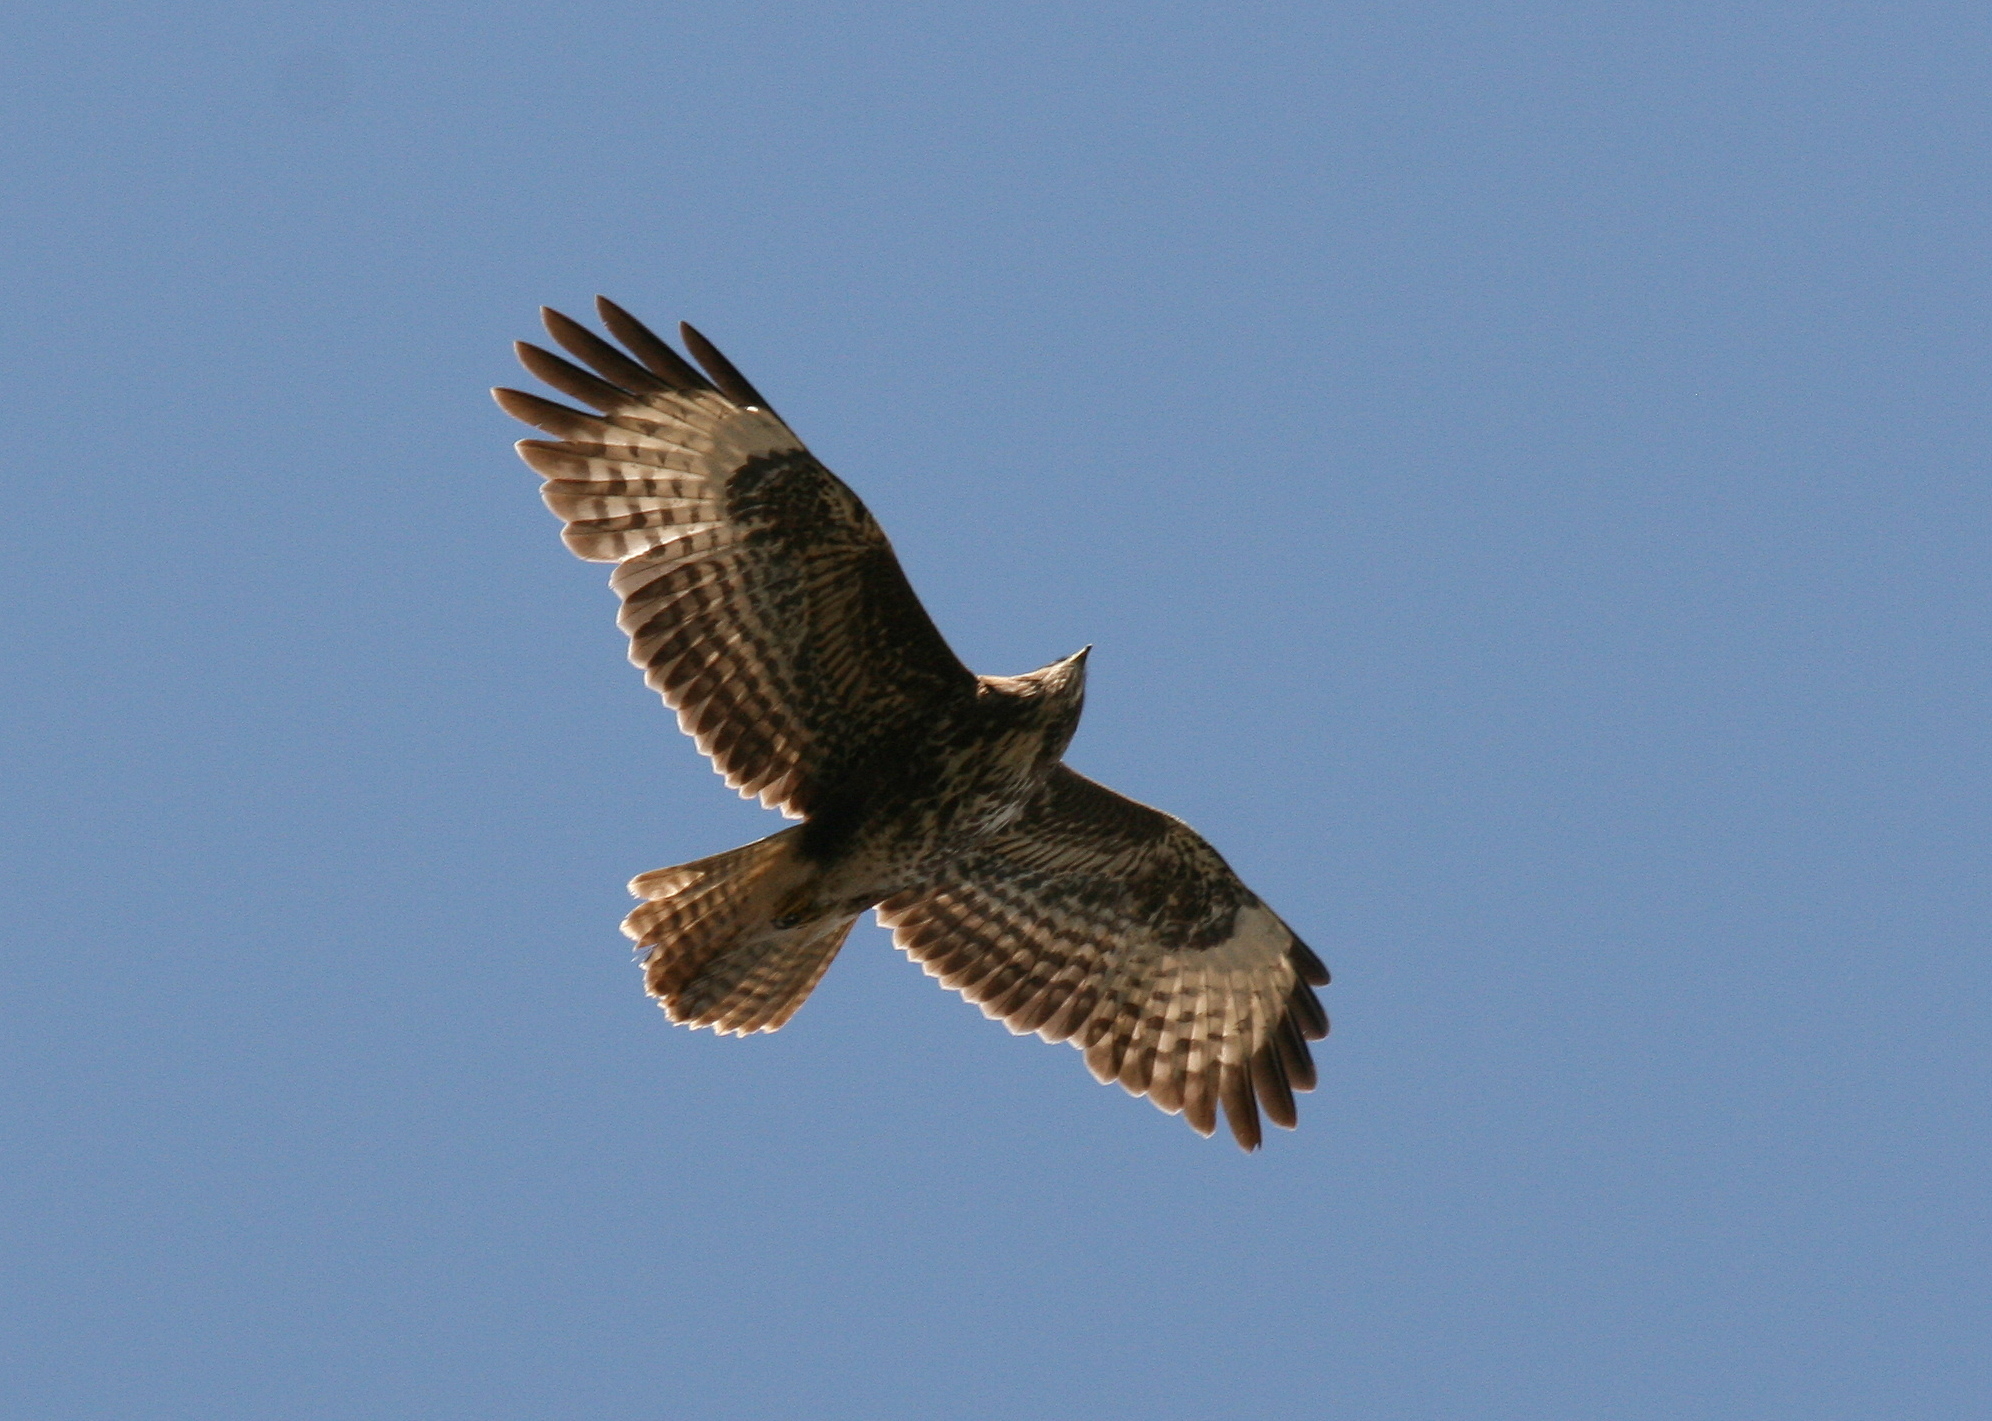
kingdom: Animalia
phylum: Chordata
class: Aves
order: Accipitriformes
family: Accipitridae
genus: Buteo
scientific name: Buteo buteo
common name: Common buzzard
